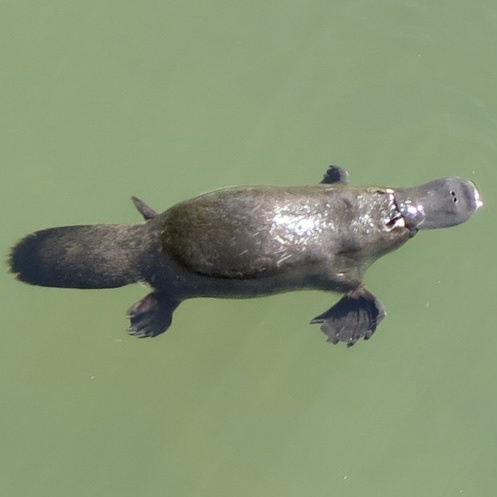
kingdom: Animalia
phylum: Chordata
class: Mammalia
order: Monotremata
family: Ornithorhynchidae
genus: Ornithorhynchus
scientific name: Ornithorhynchus anatinus
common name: Platypus
